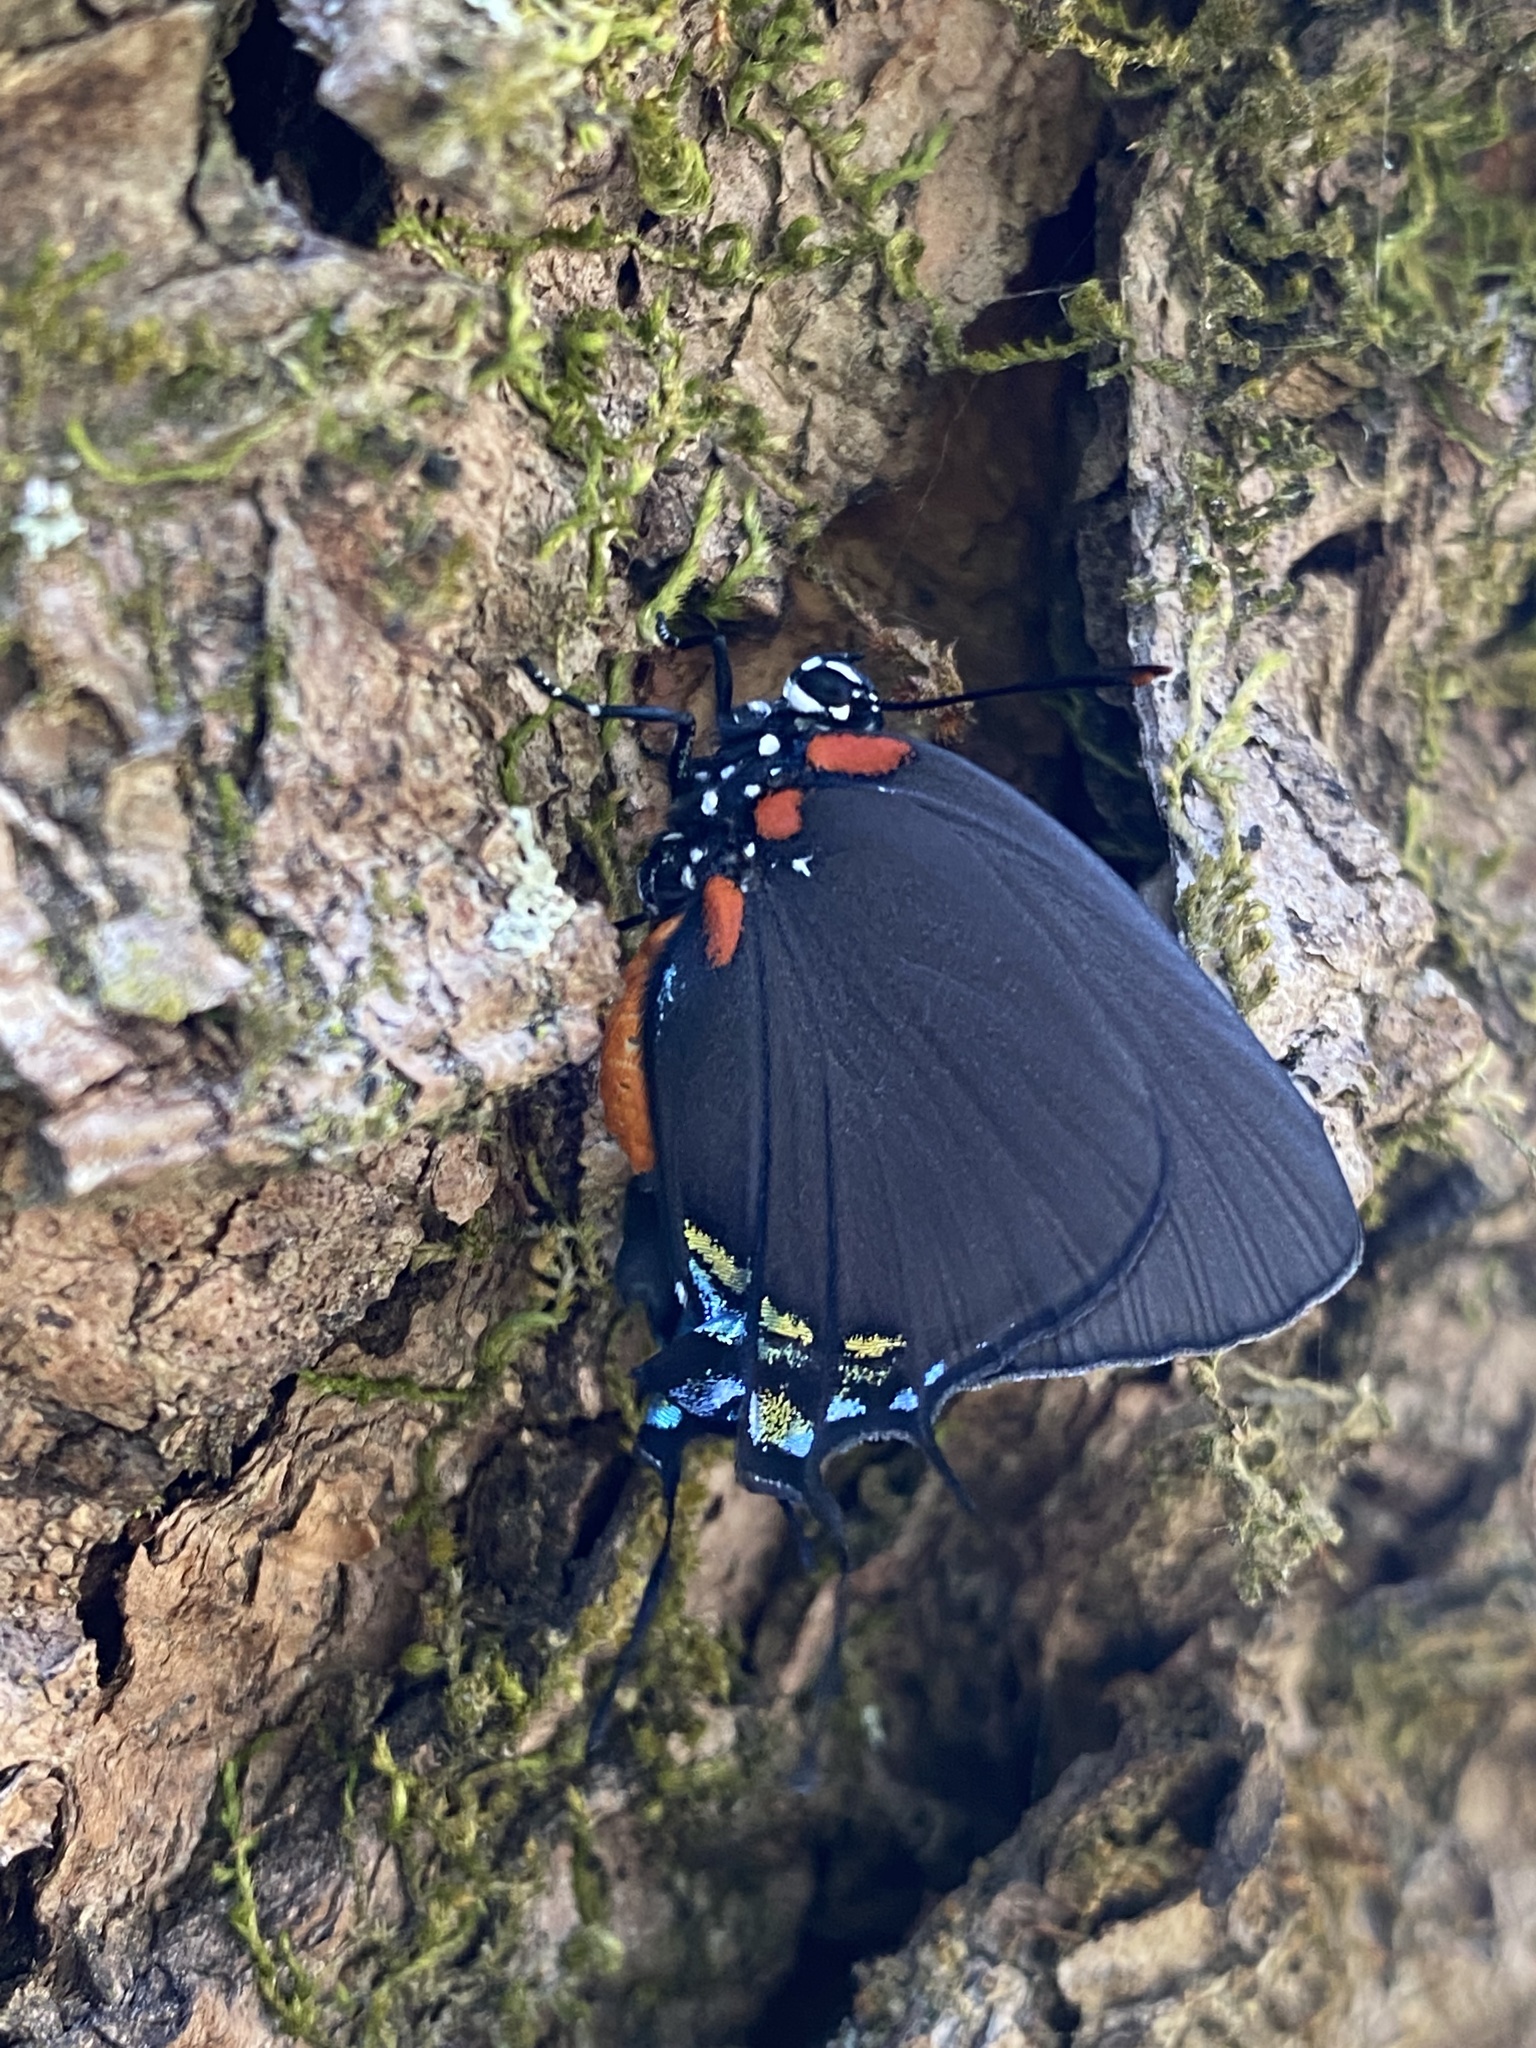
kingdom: Animalia
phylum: Arthropoda
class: Insecta
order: Lepidoptera
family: Lycaenidae
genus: Atlides
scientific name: Atlides halesus
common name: Great purple hairstreak
